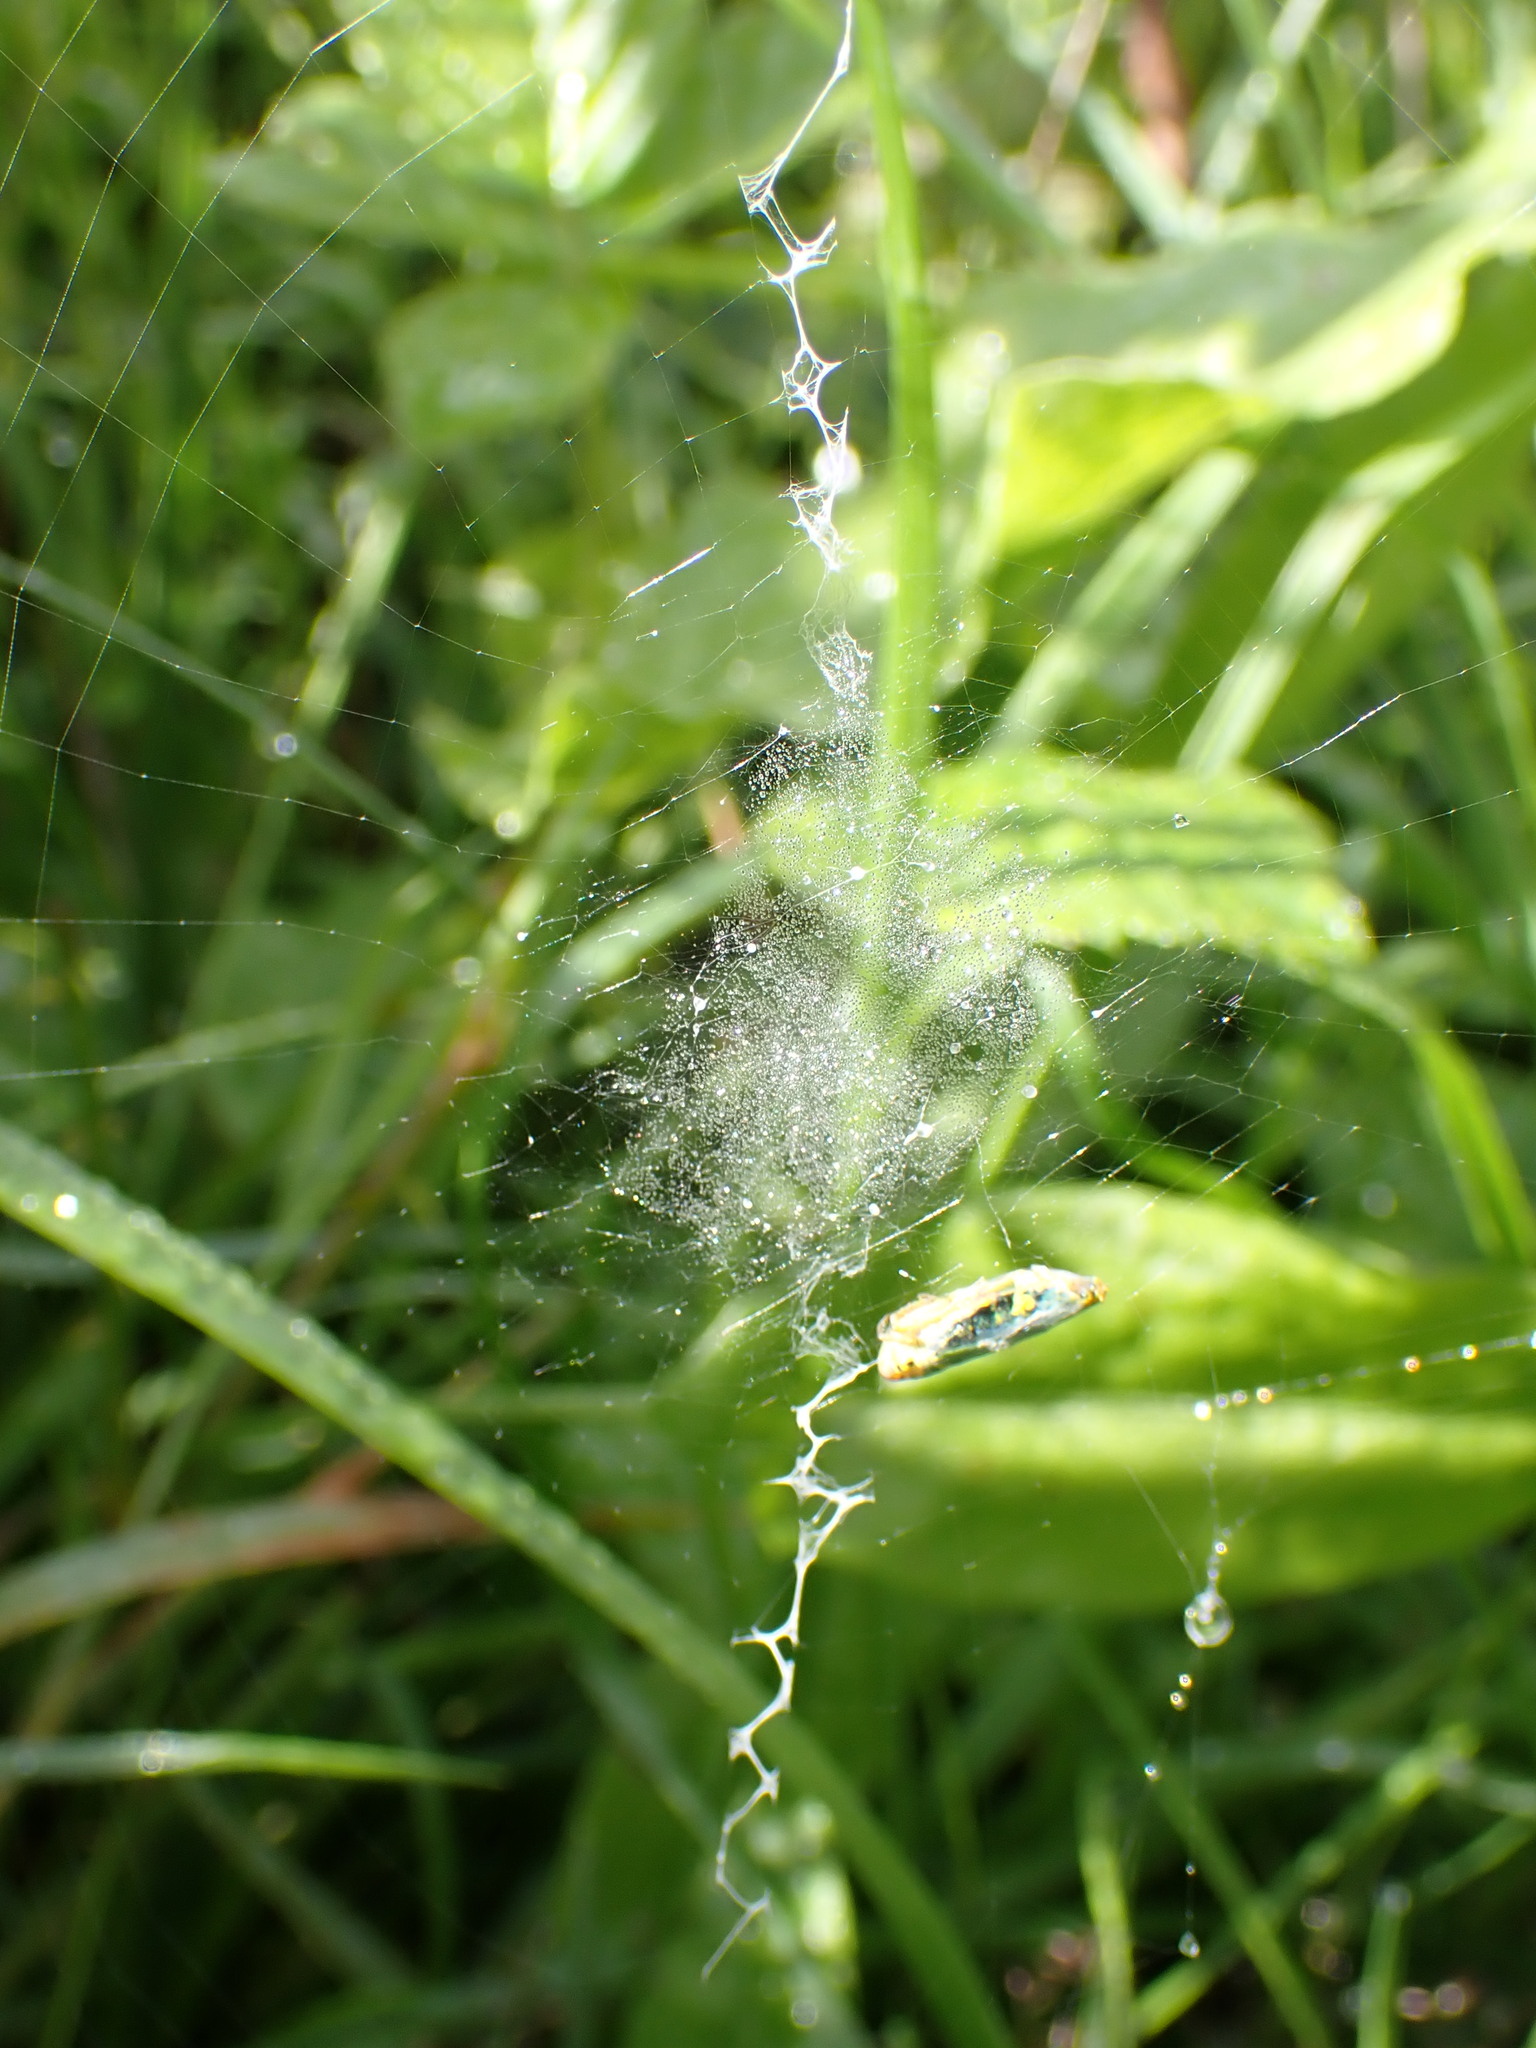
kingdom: Animalia
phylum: Arthropoda
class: Arachnida
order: Araneae
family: Araneidae
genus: Argiope
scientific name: Argiope bruennichi
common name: Wasp spider
